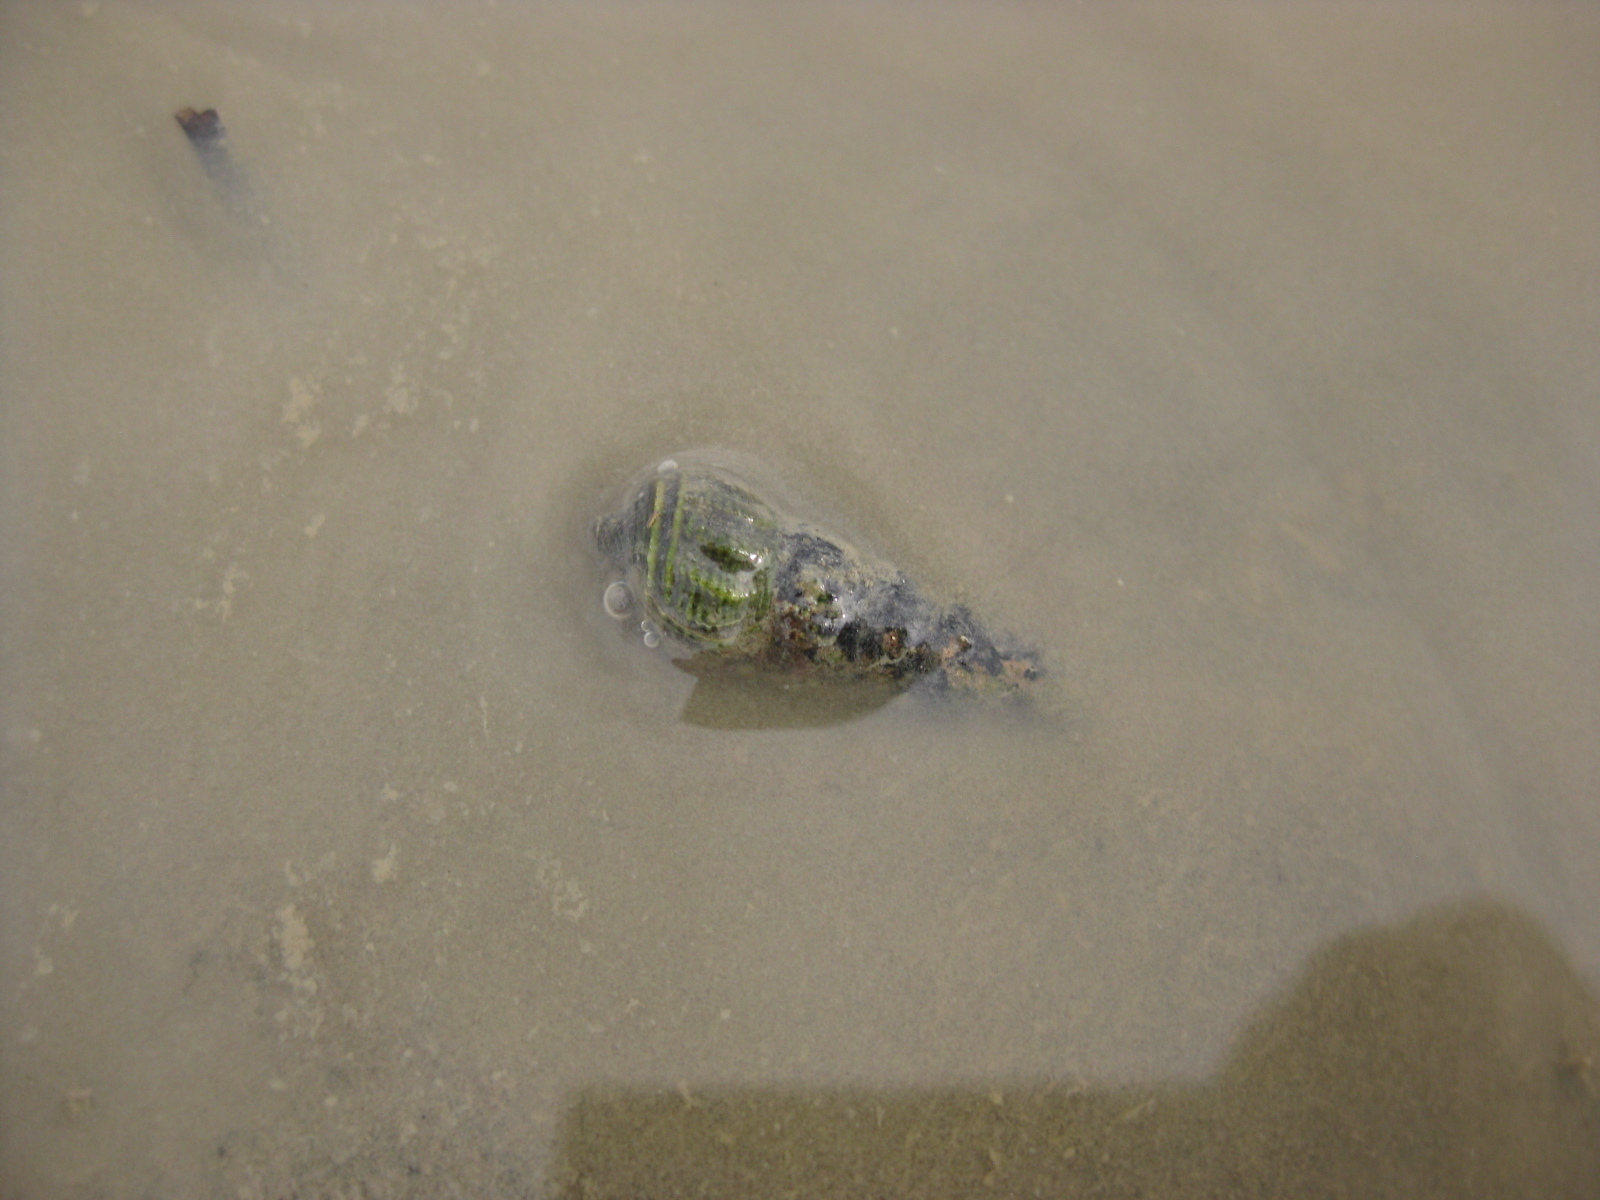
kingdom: Animalia
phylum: Mollusca
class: Gastropoda
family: Batillariidae
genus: Zeacumantus
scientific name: Zeacumantus lutulentus
